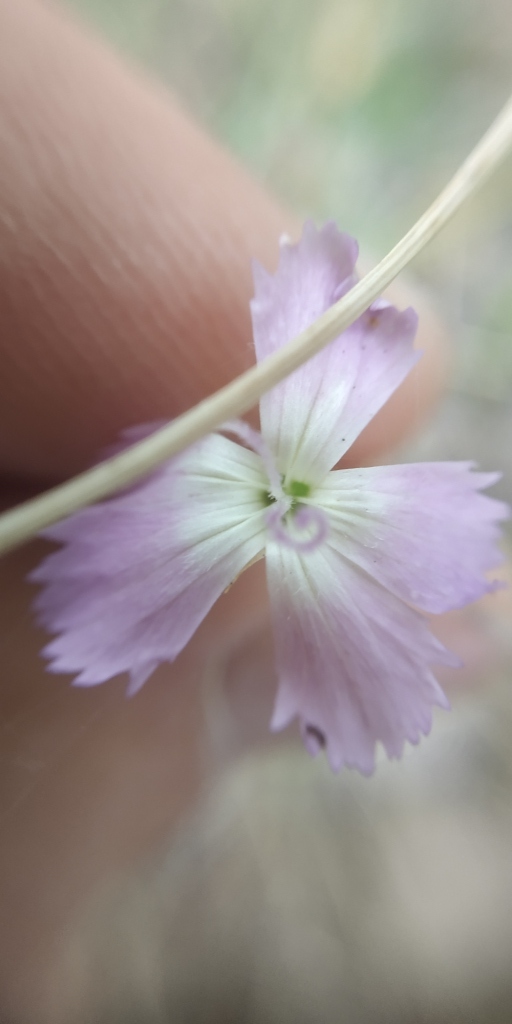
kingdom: Plantae
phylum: Tracheophyta
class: Magnoliopsida
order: Caryophyllales
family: Caryophyllaceae
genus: Dianthus
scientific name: Dianthus chinensis
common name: Rainbow pink
